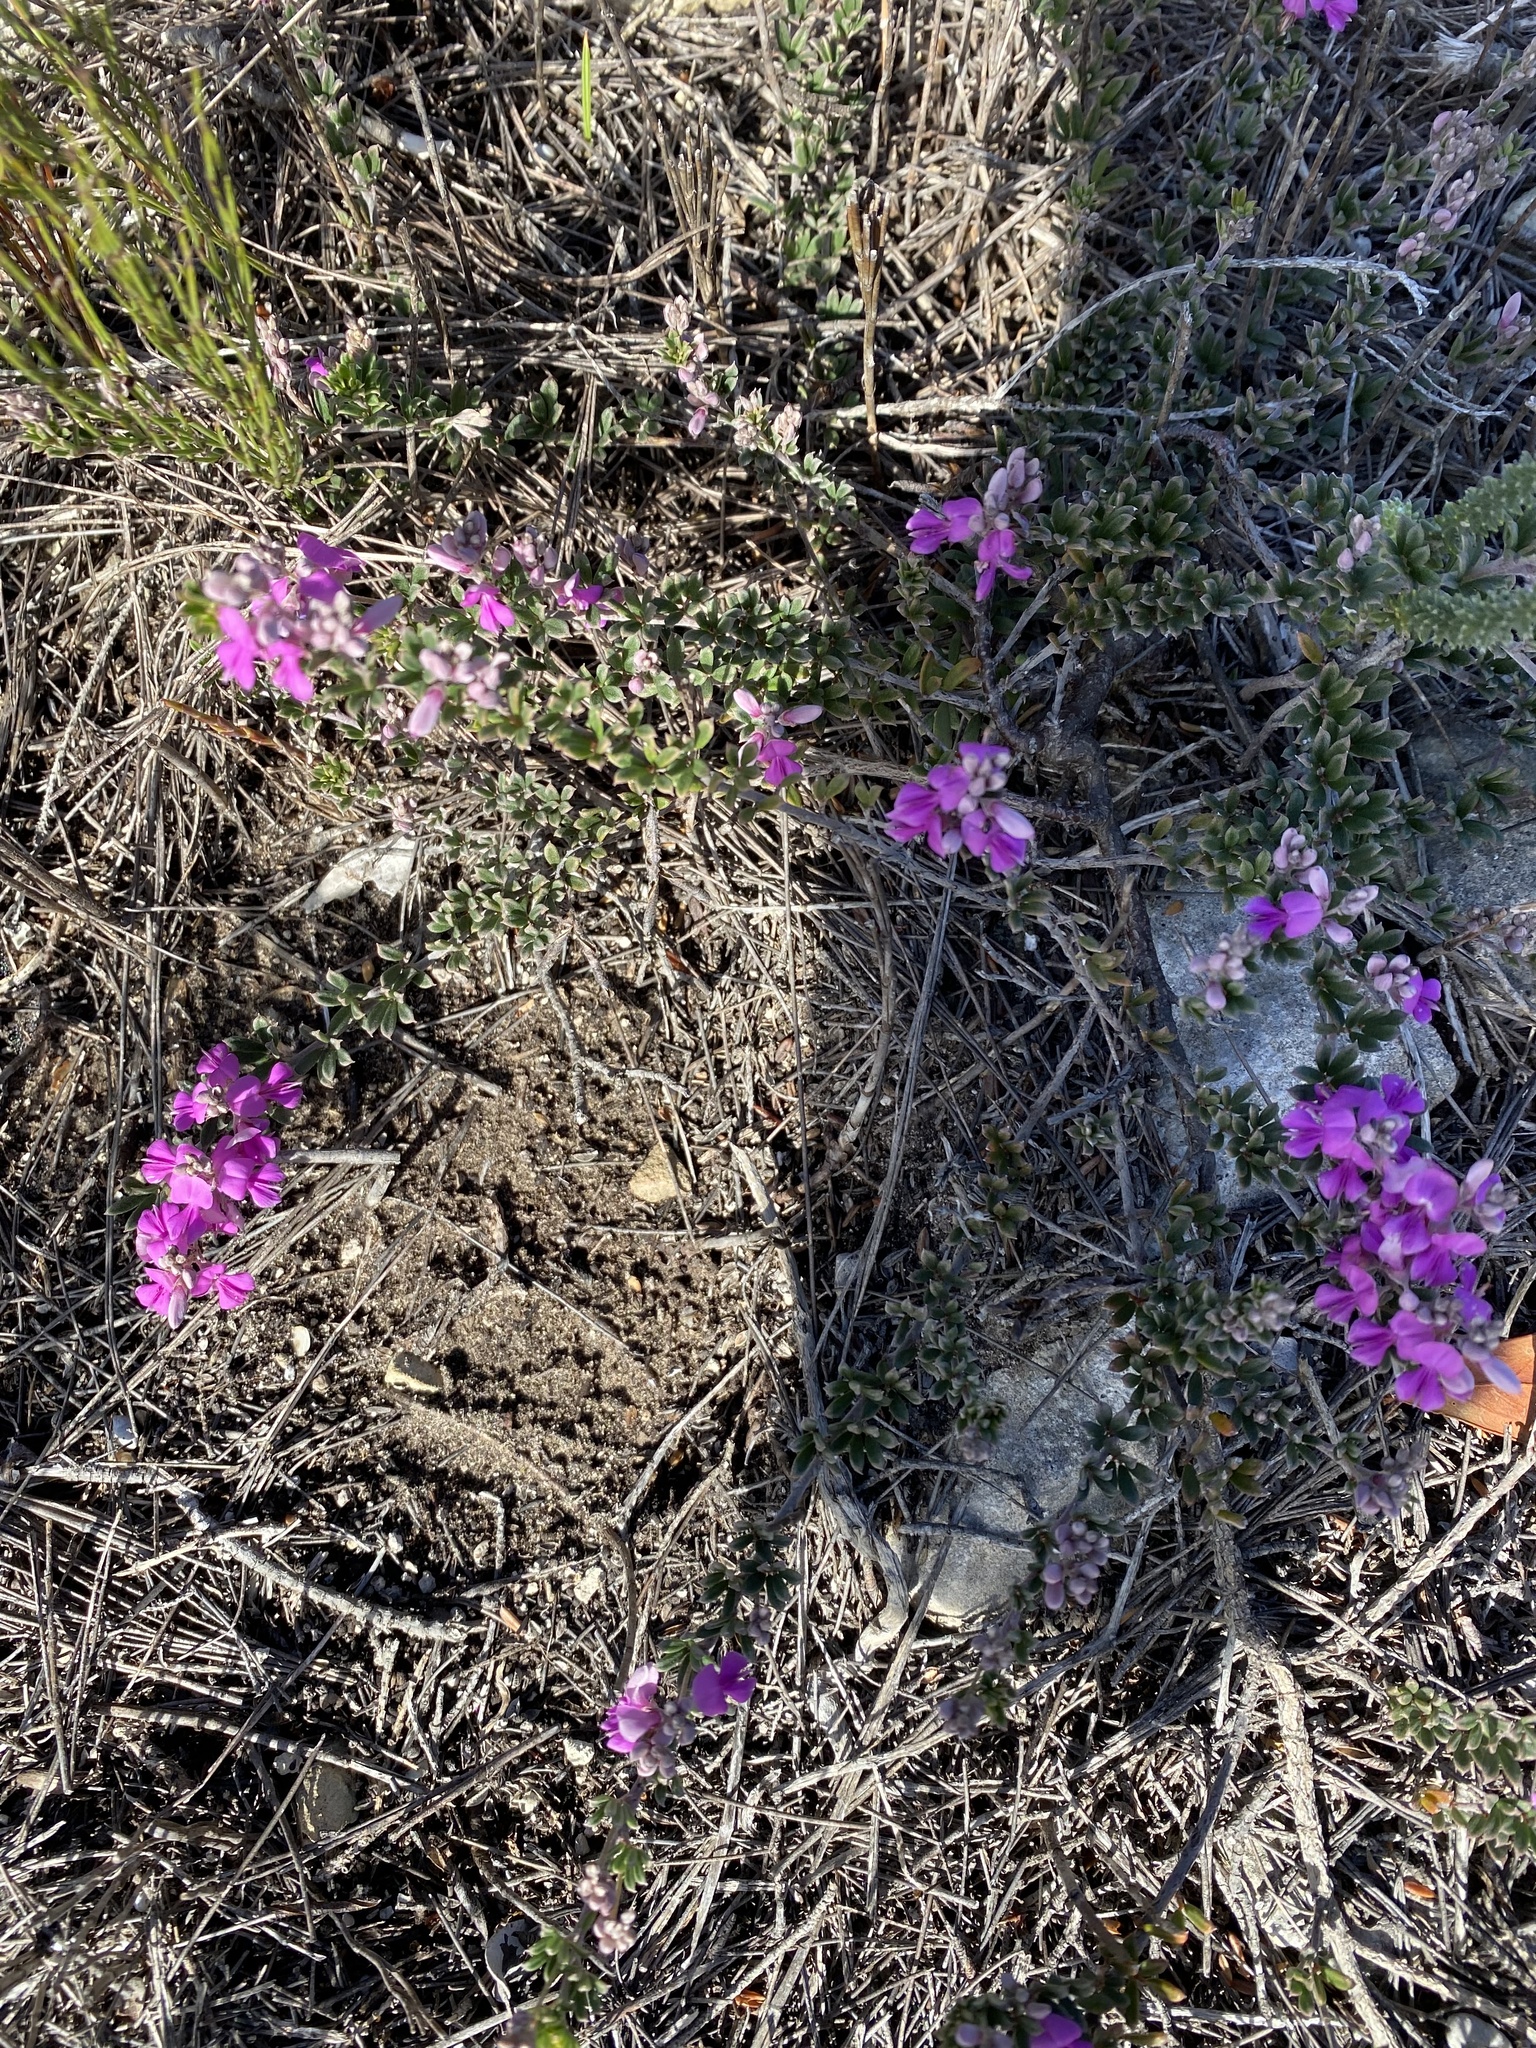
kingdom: Plantae
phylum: Tracheophyta
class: Magnoliopsida
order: Fabales
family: Fabaceae
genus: Indigofera
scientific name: Indigofera
